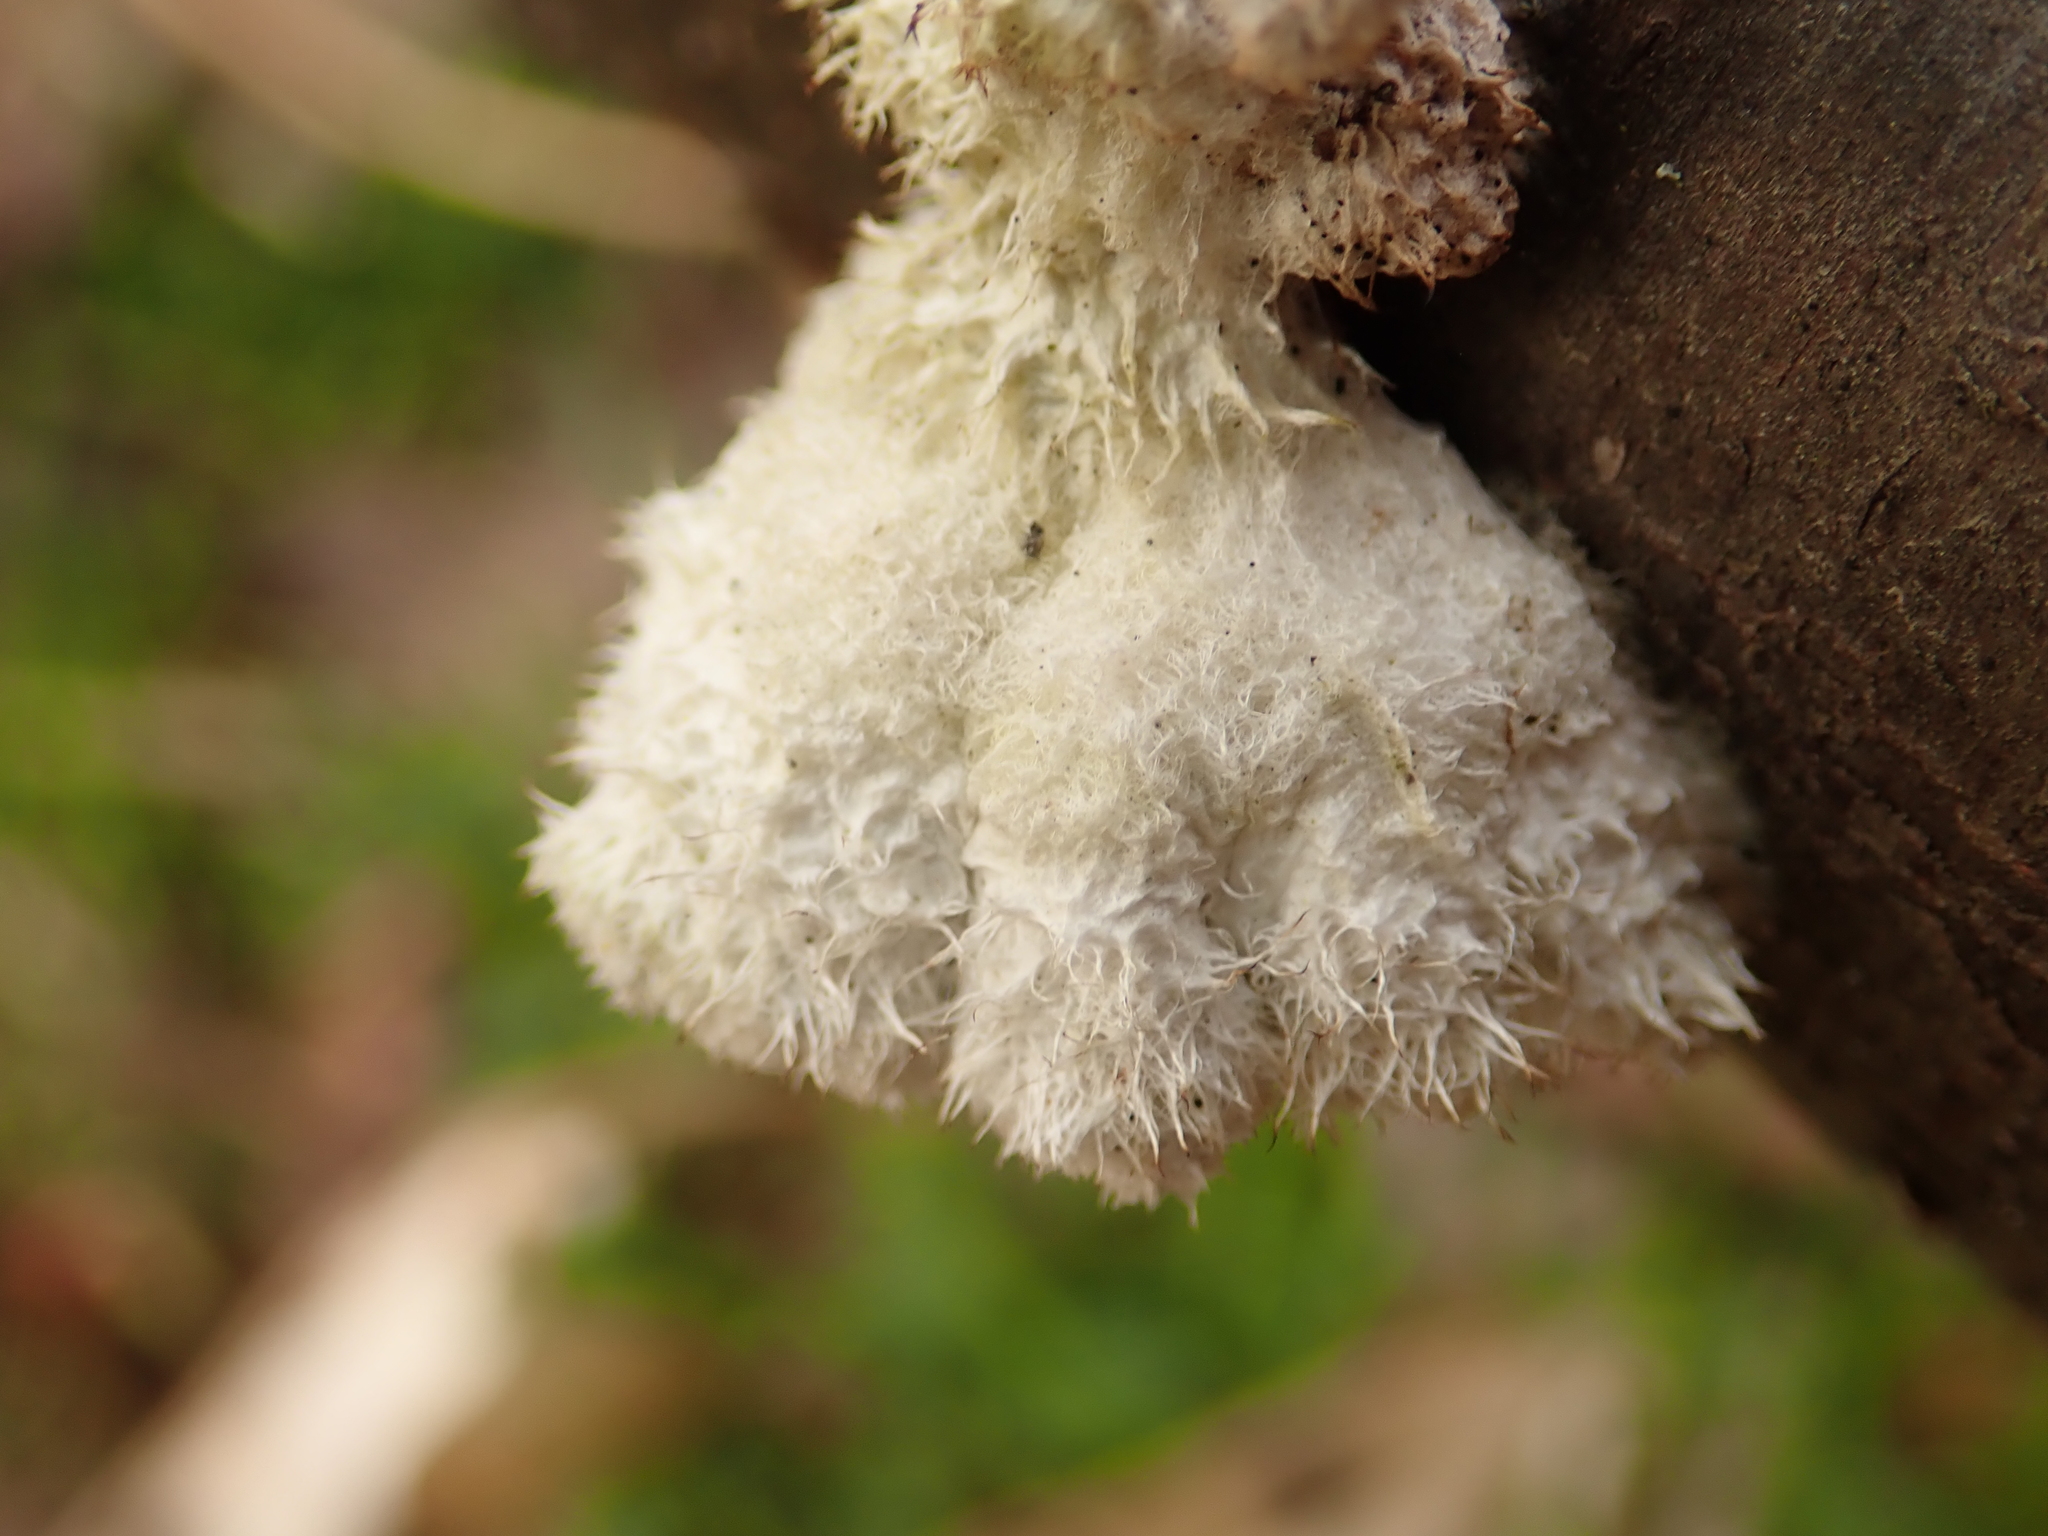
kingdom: Fungi
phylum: Basidiomycota
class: Agaricomycetes
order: Agaricales
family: Schizophyllaceae
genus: Schizophyllum
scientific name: Schizophyllum commune
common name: Common porecrust
